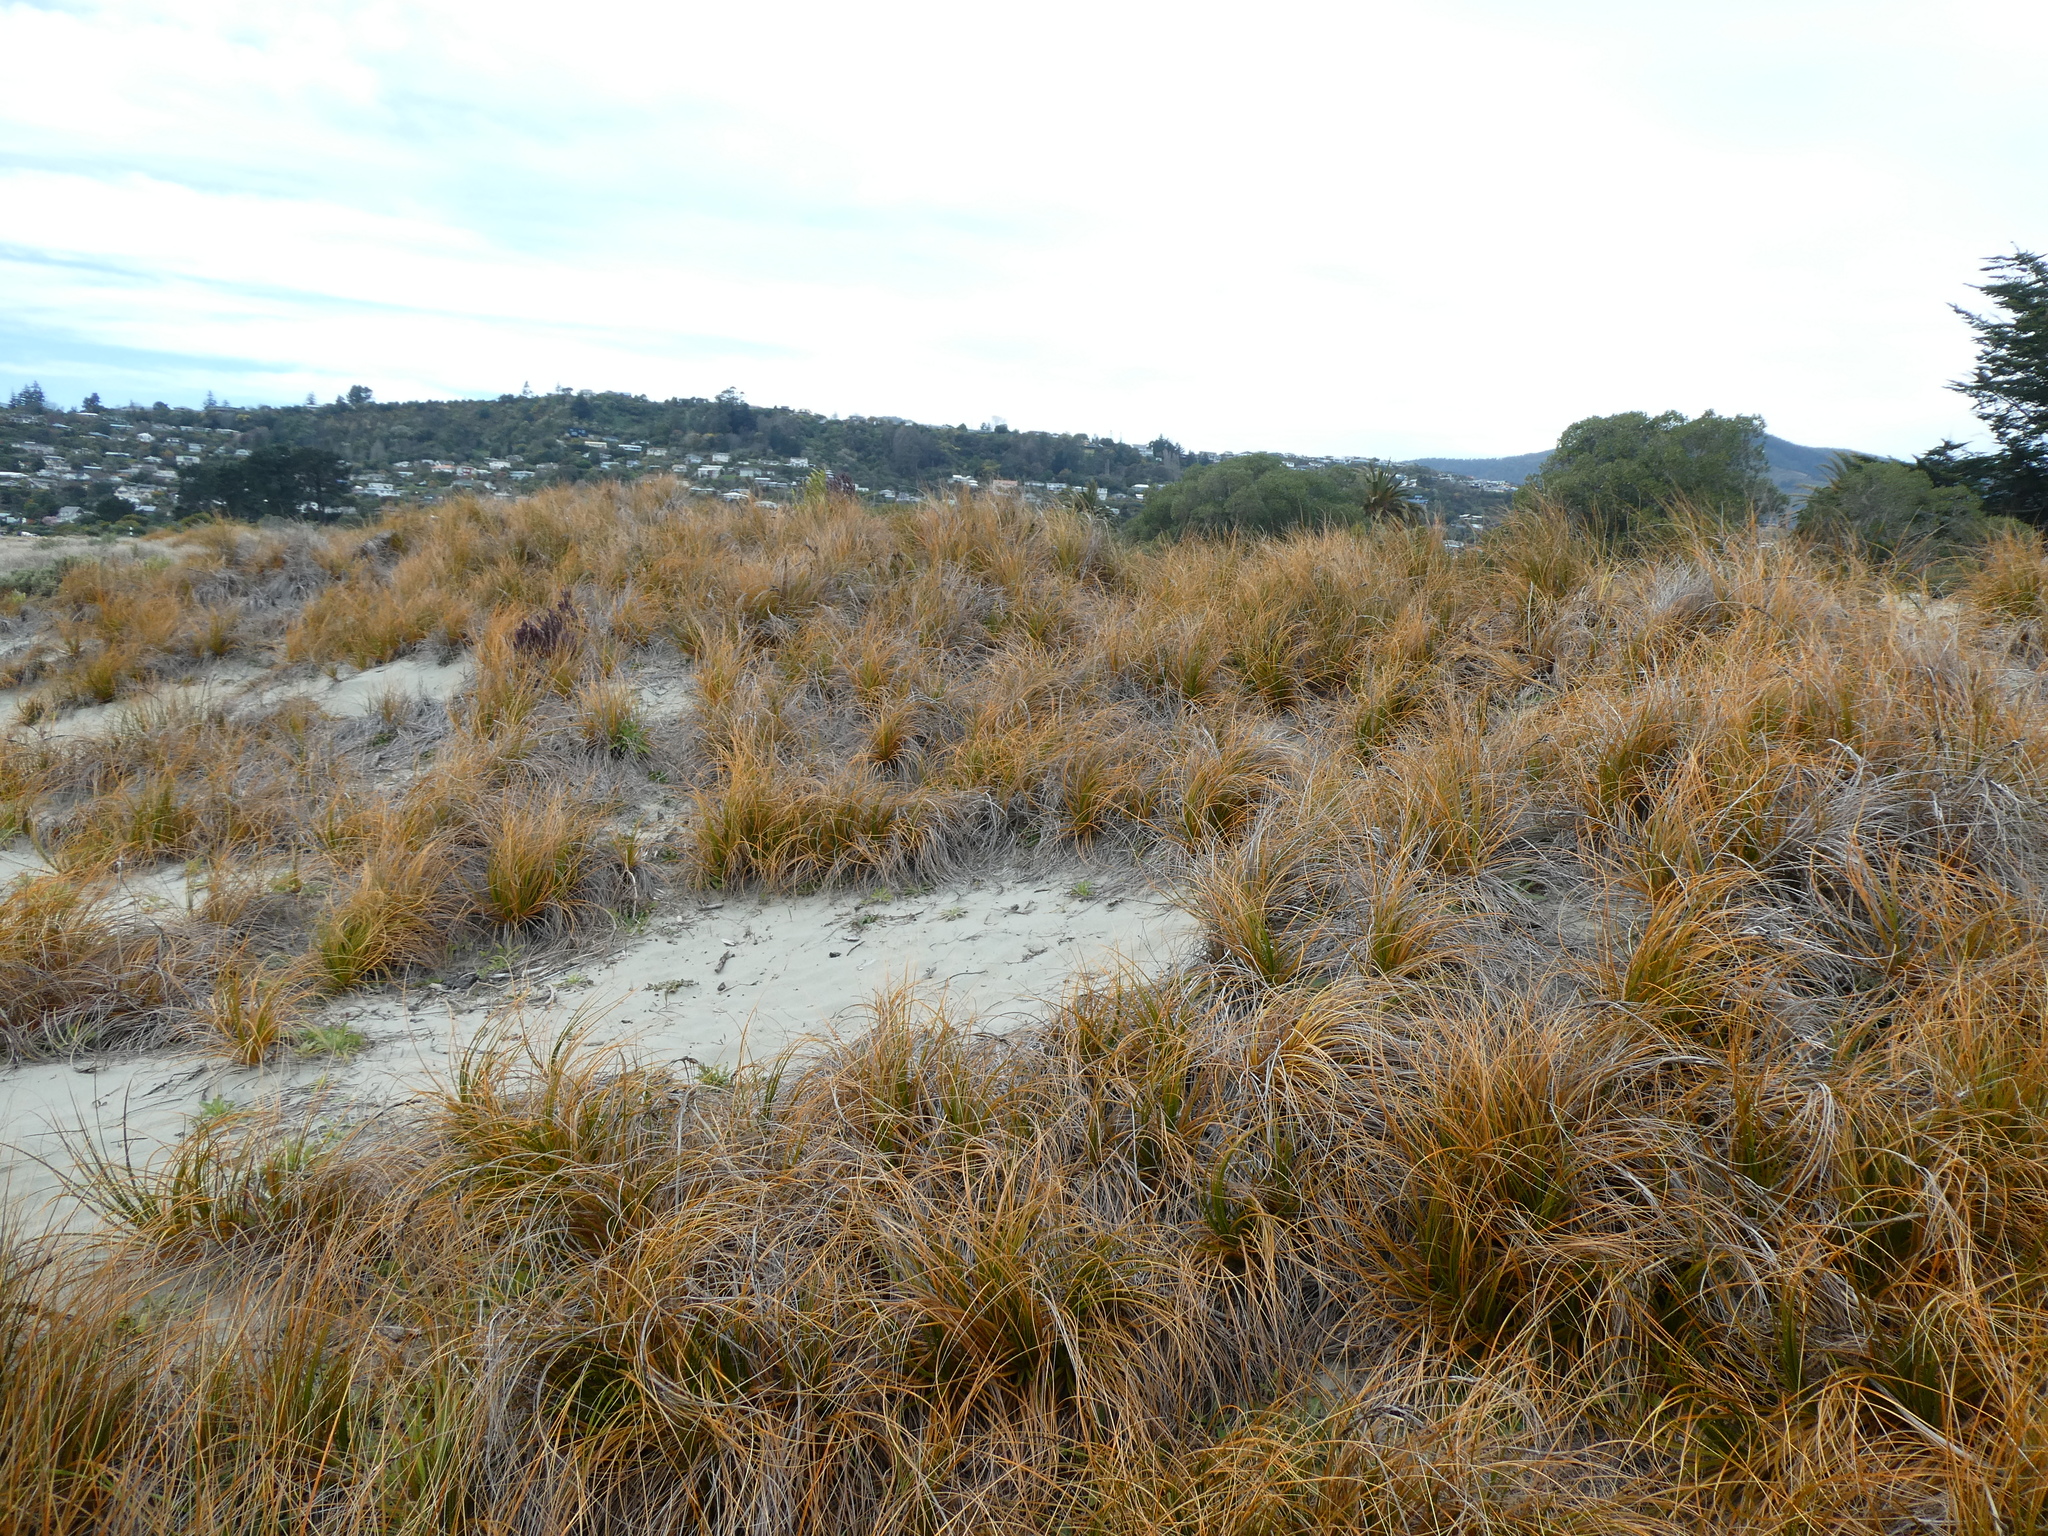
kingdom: Plantae
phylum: Tracheophyta
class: Liliopsida
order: Poales
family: Cyperaceae
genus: Ficinia
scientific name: Ficinia spiralis
